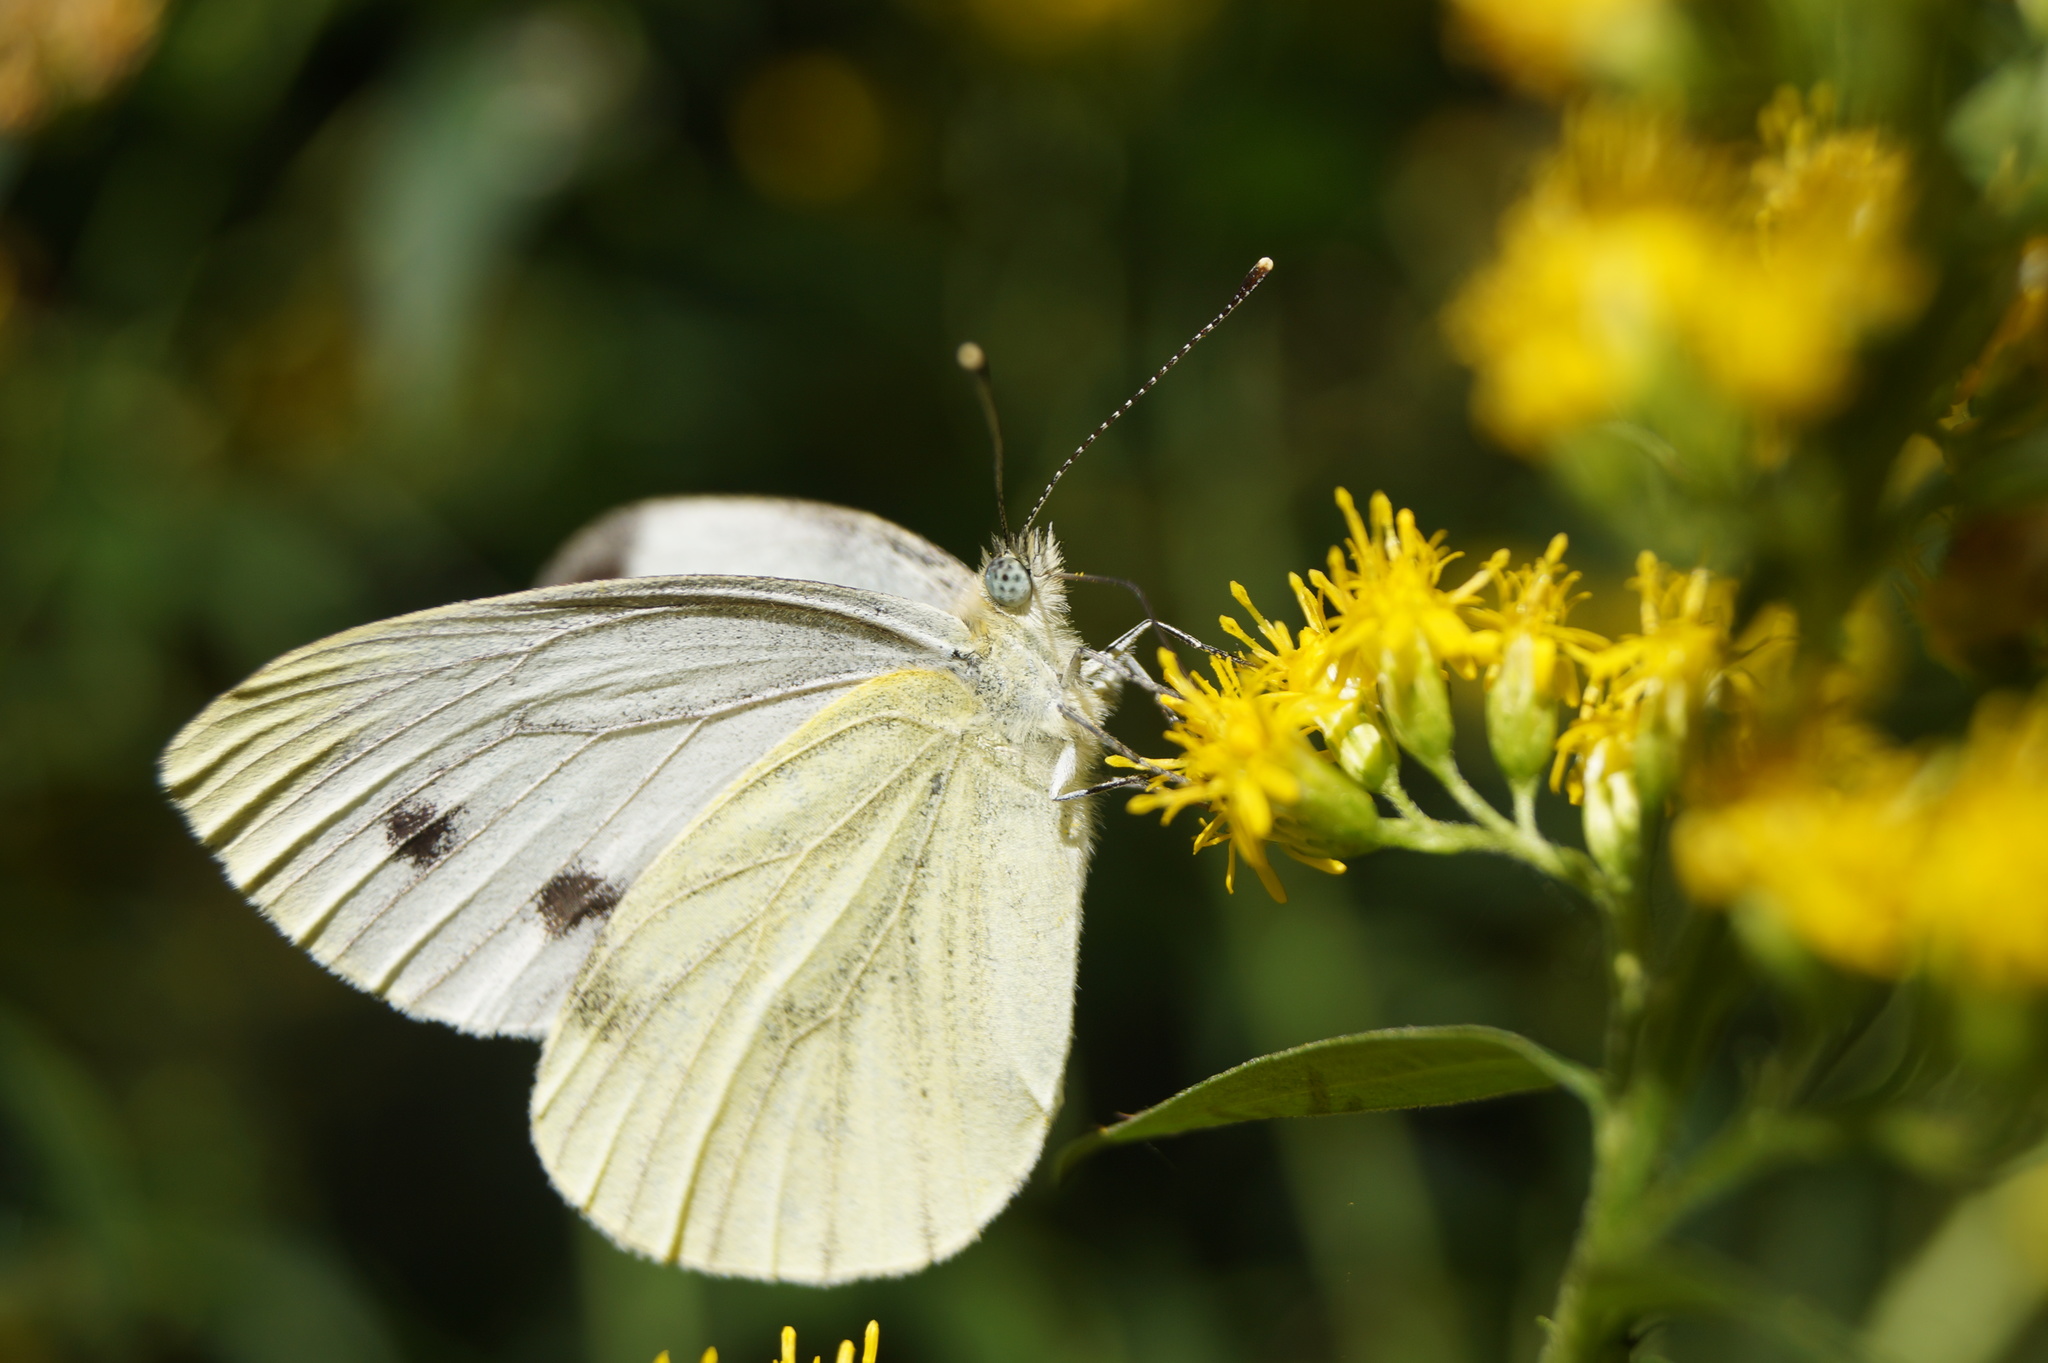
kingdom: Animalia
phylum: Arthropoda
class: Insecta
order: Lepidoptera
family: Pieridae
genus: Pieris
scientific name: Pieris napi
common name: Green-veined white
